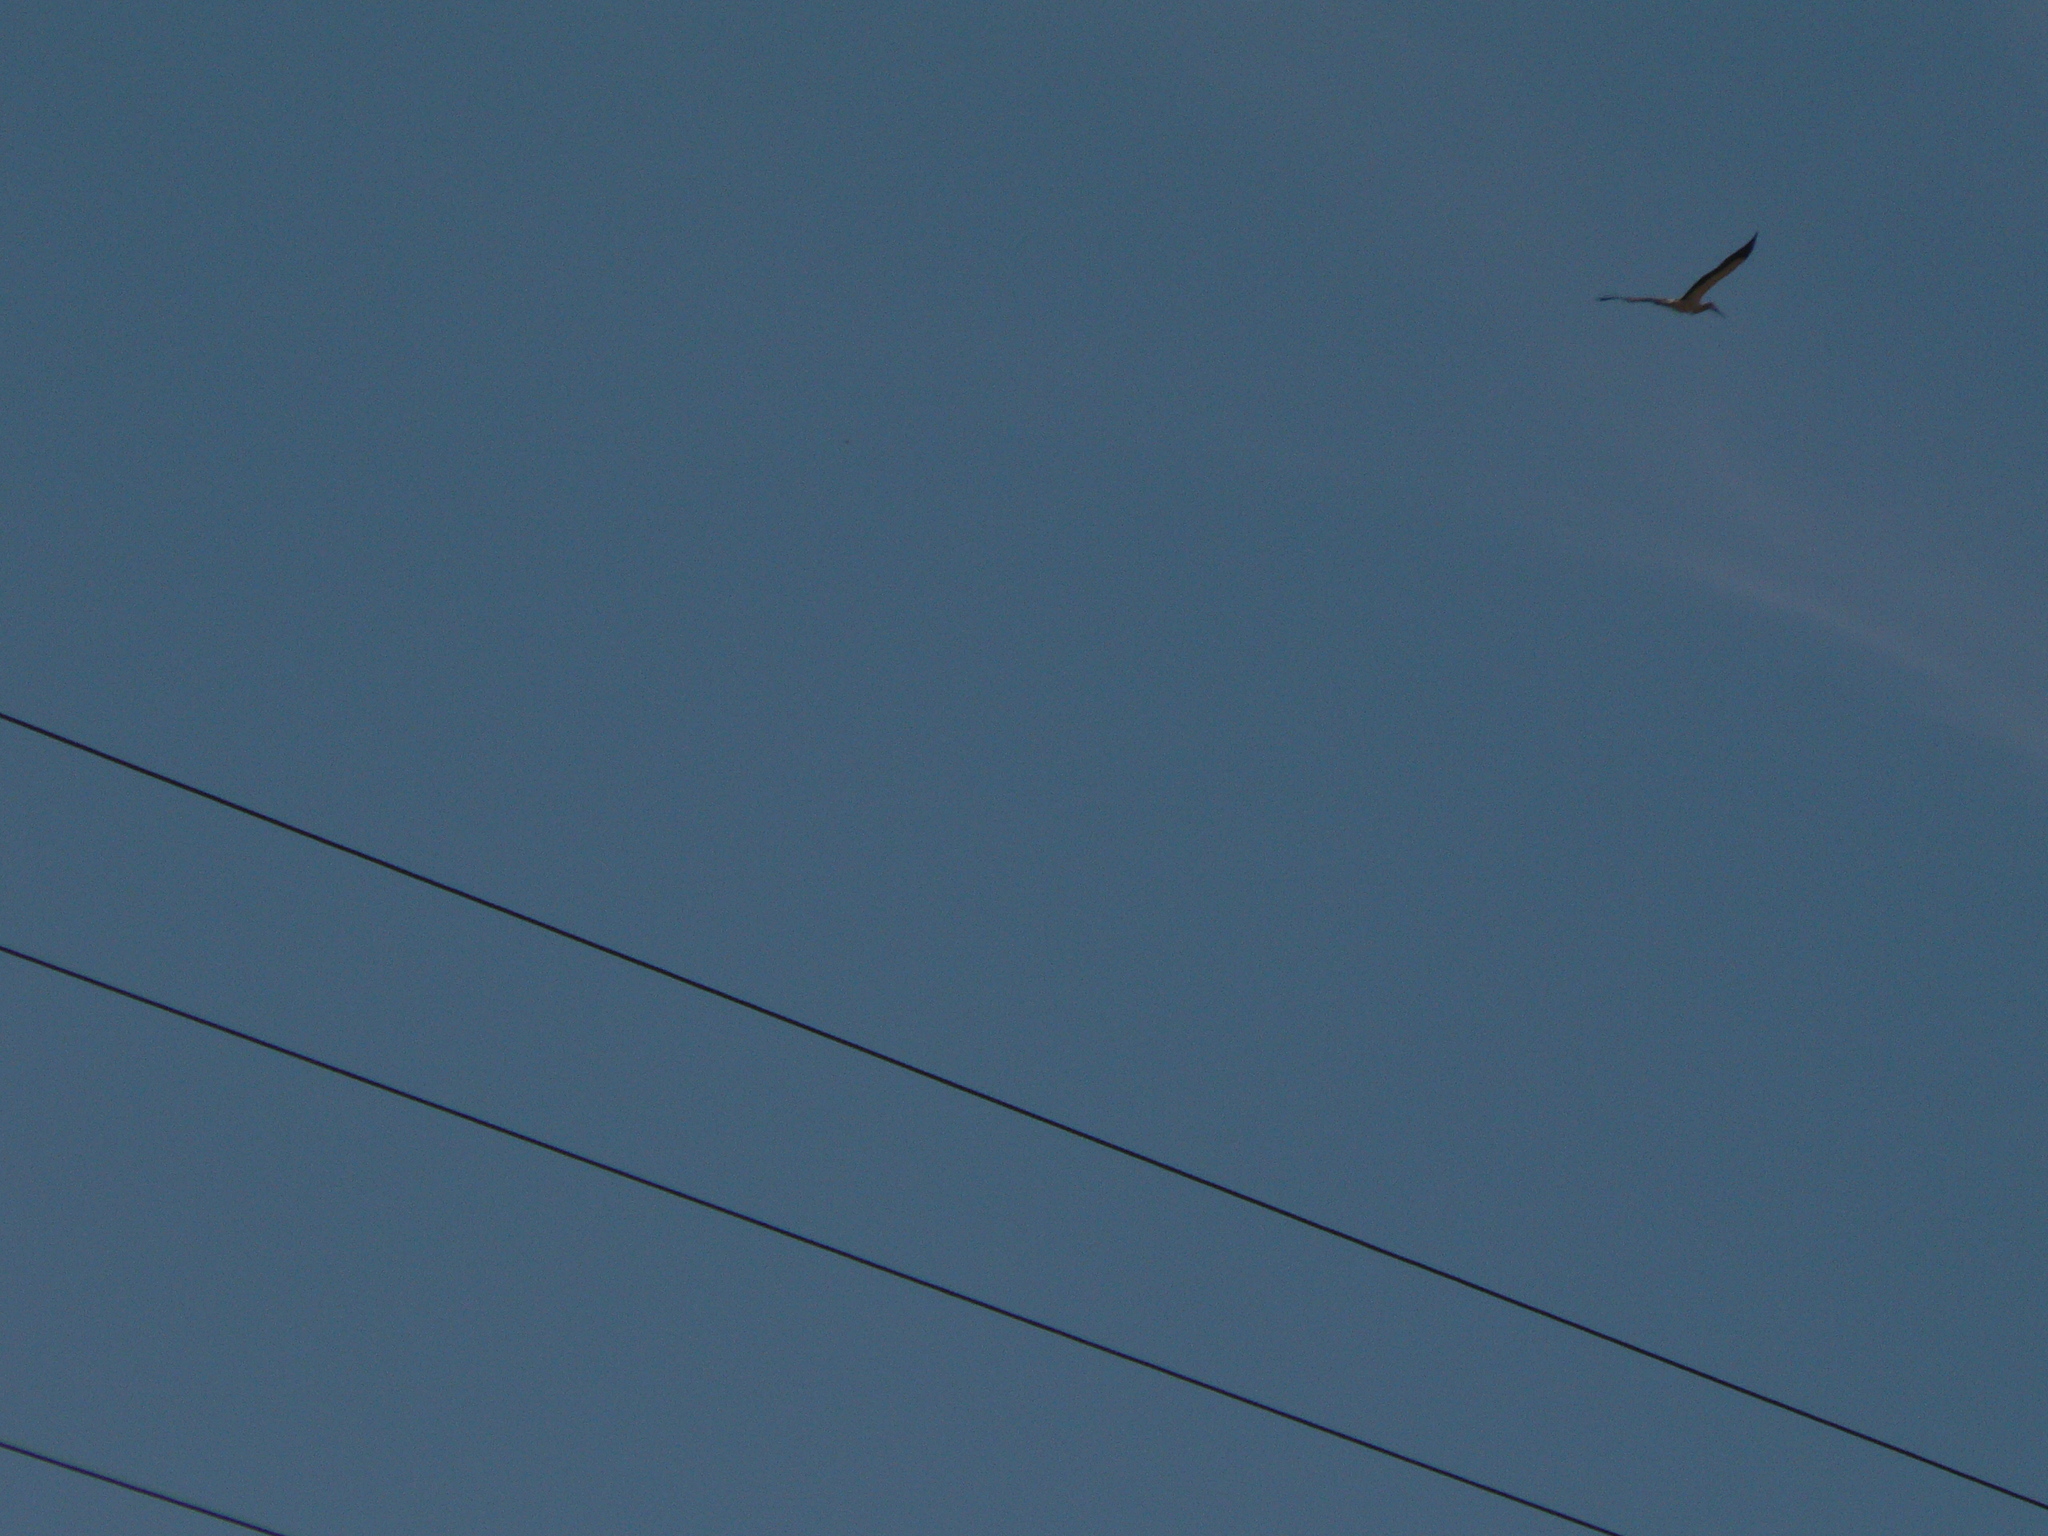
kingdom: Animalia
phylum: Chordata
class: Aves
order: Ciconiiformes
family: Ciconiidae
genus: Ciconia
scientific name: Ciconia ciconia
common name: White stork
